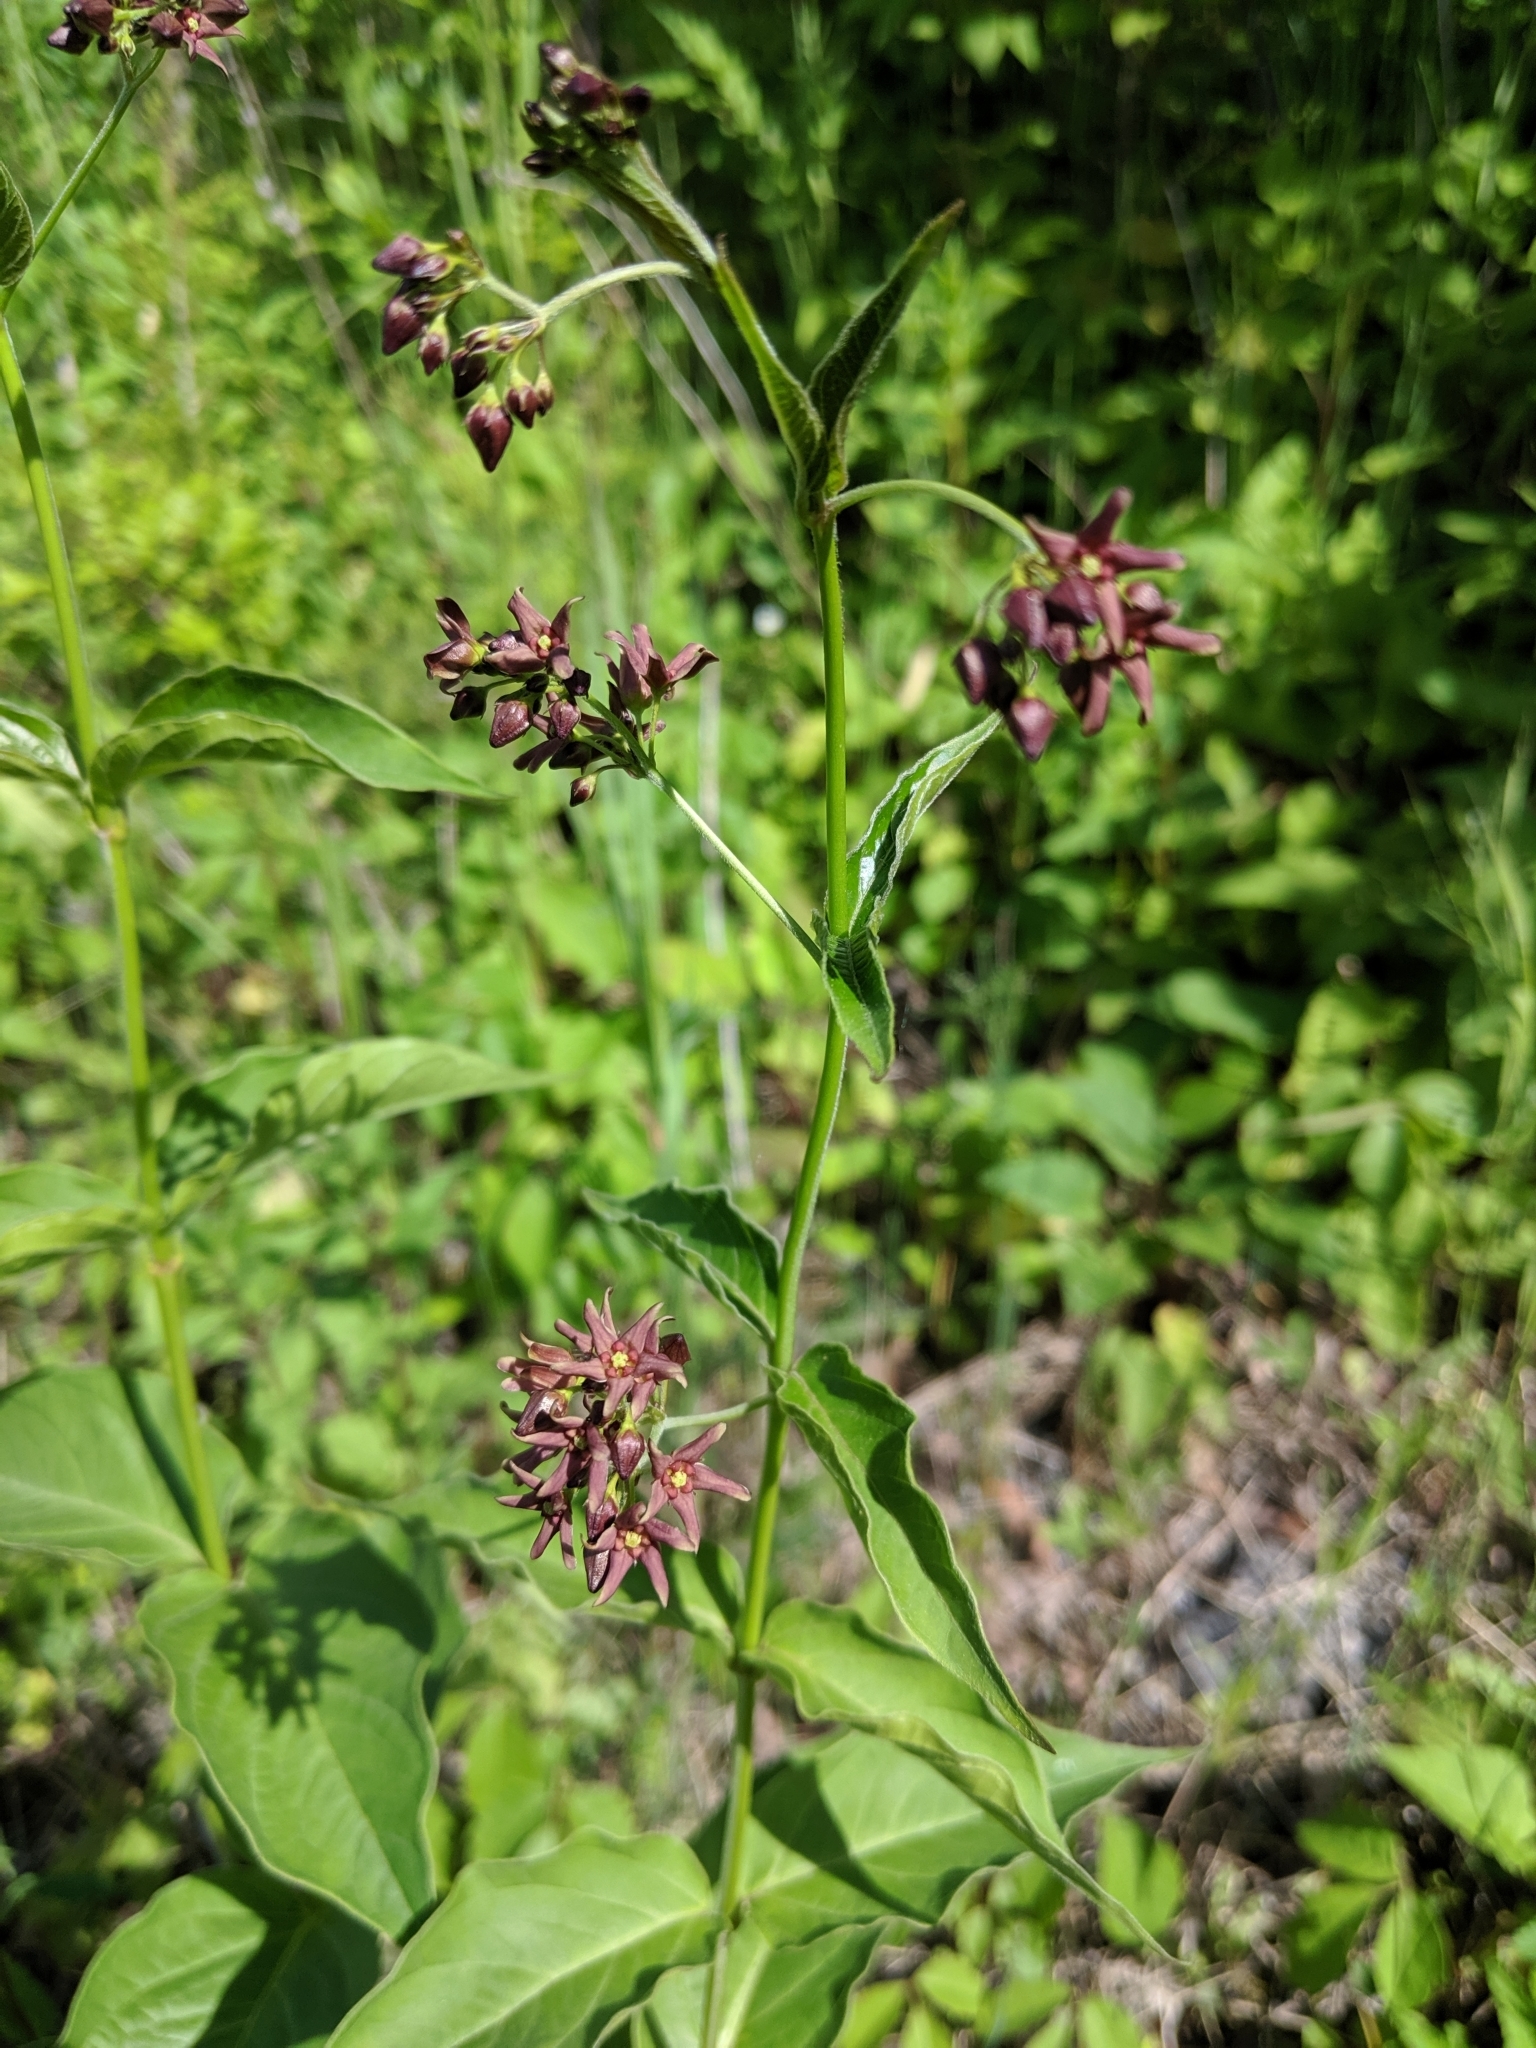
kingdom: Plantae
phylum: Tracheophyta
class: Magnoliopsida
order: Gentianales
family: Apocynaceae
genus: Vincetoxicum
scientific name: Vincetoxicum rossicum
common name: Dog-strangling vine
